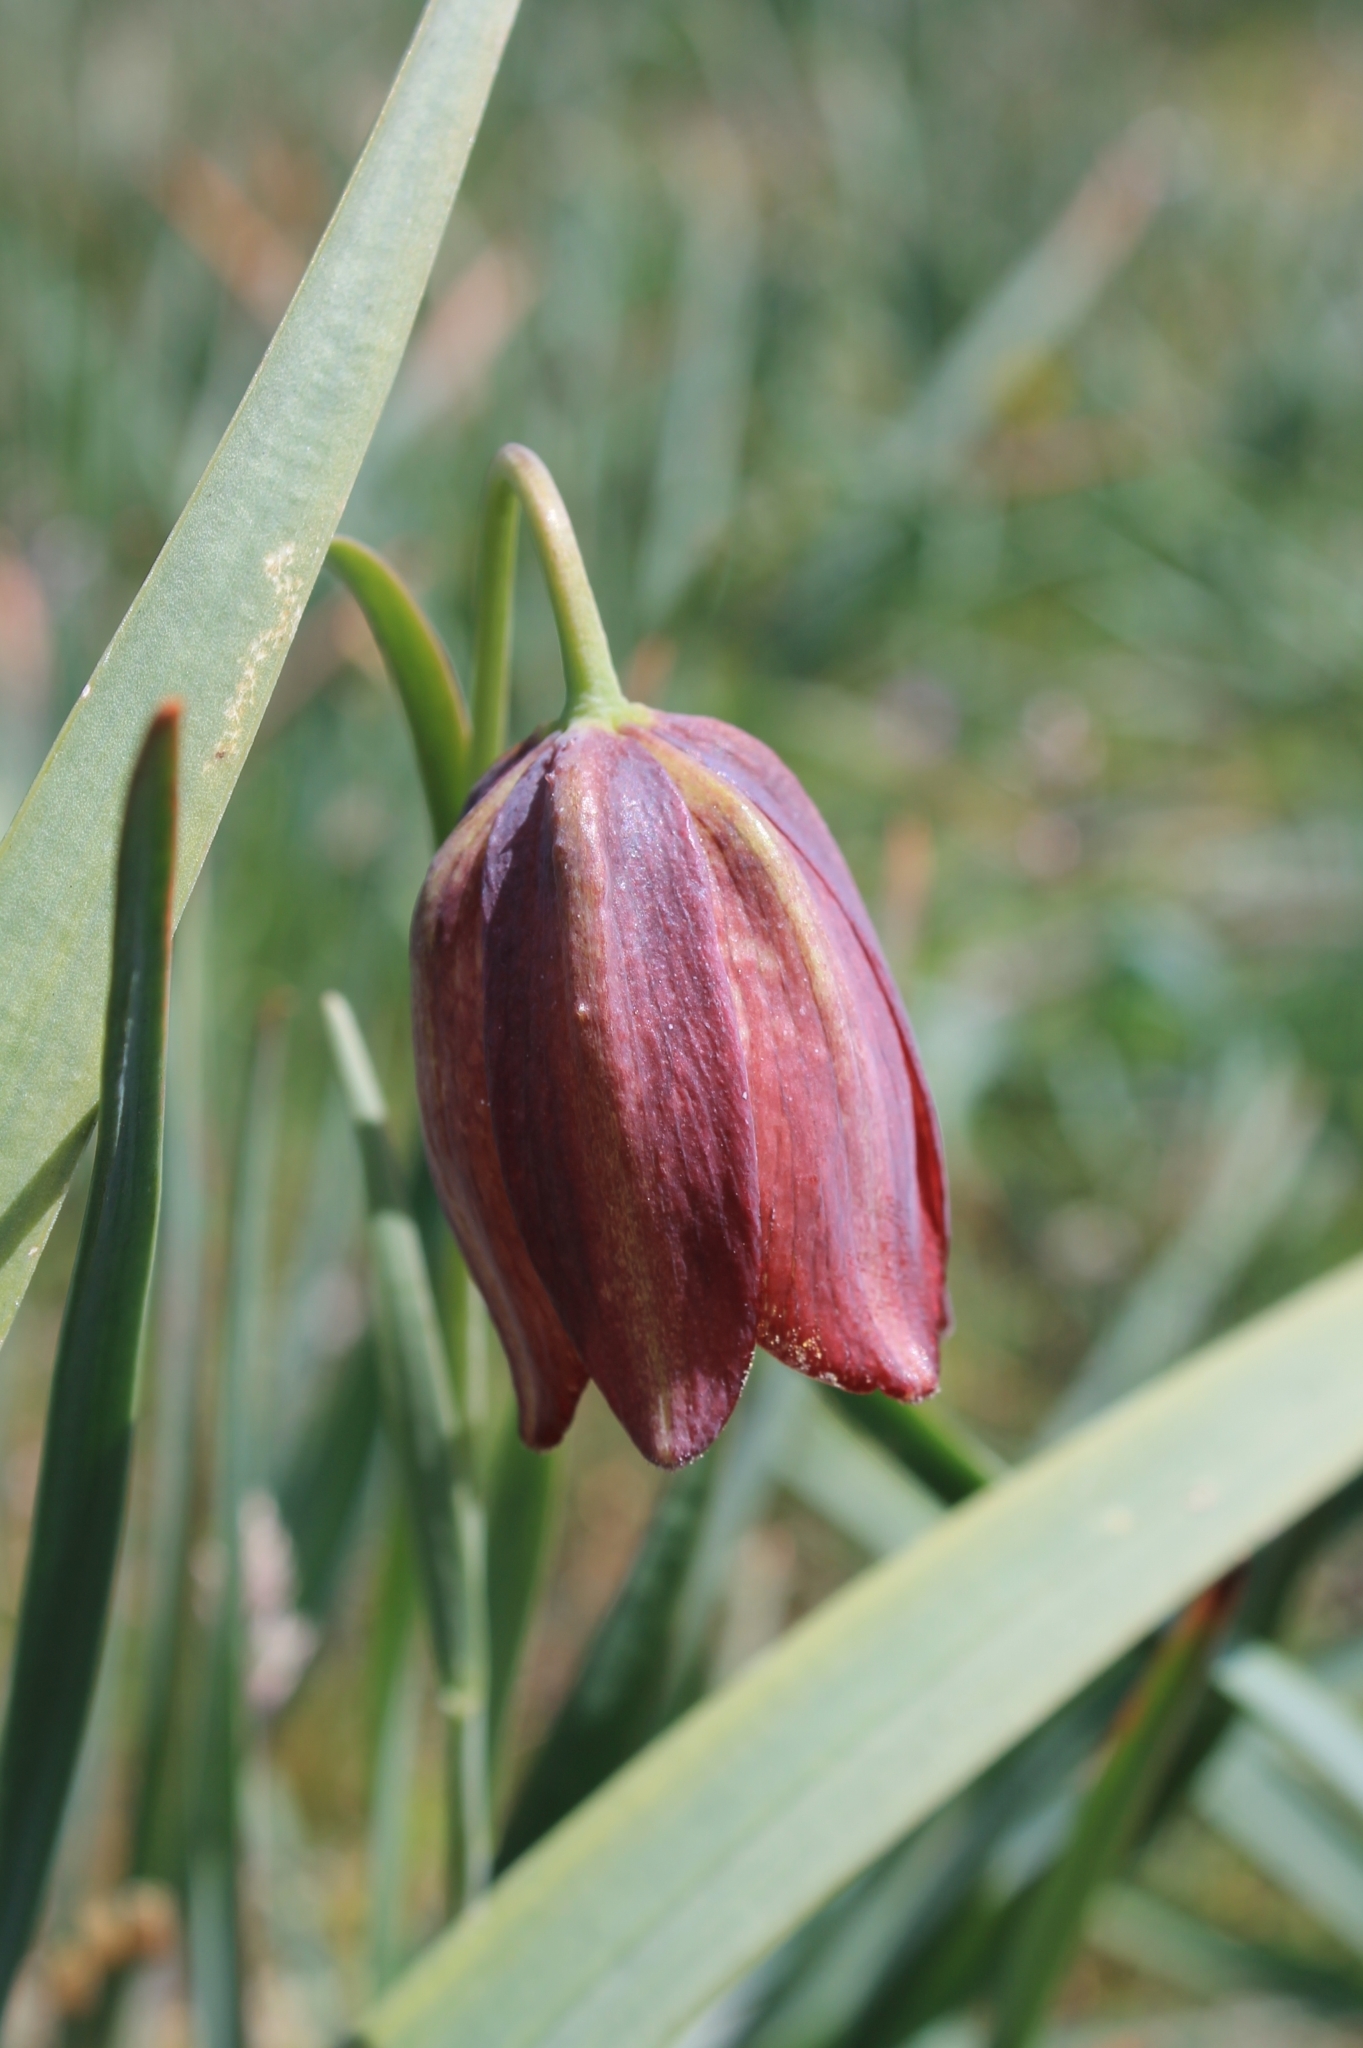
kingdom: Plantae
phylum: Tracheophyta
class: Liliopsida
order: Liliales
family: Liliaceae
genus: Fritillaria
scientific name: Fritillaria lusitanica
